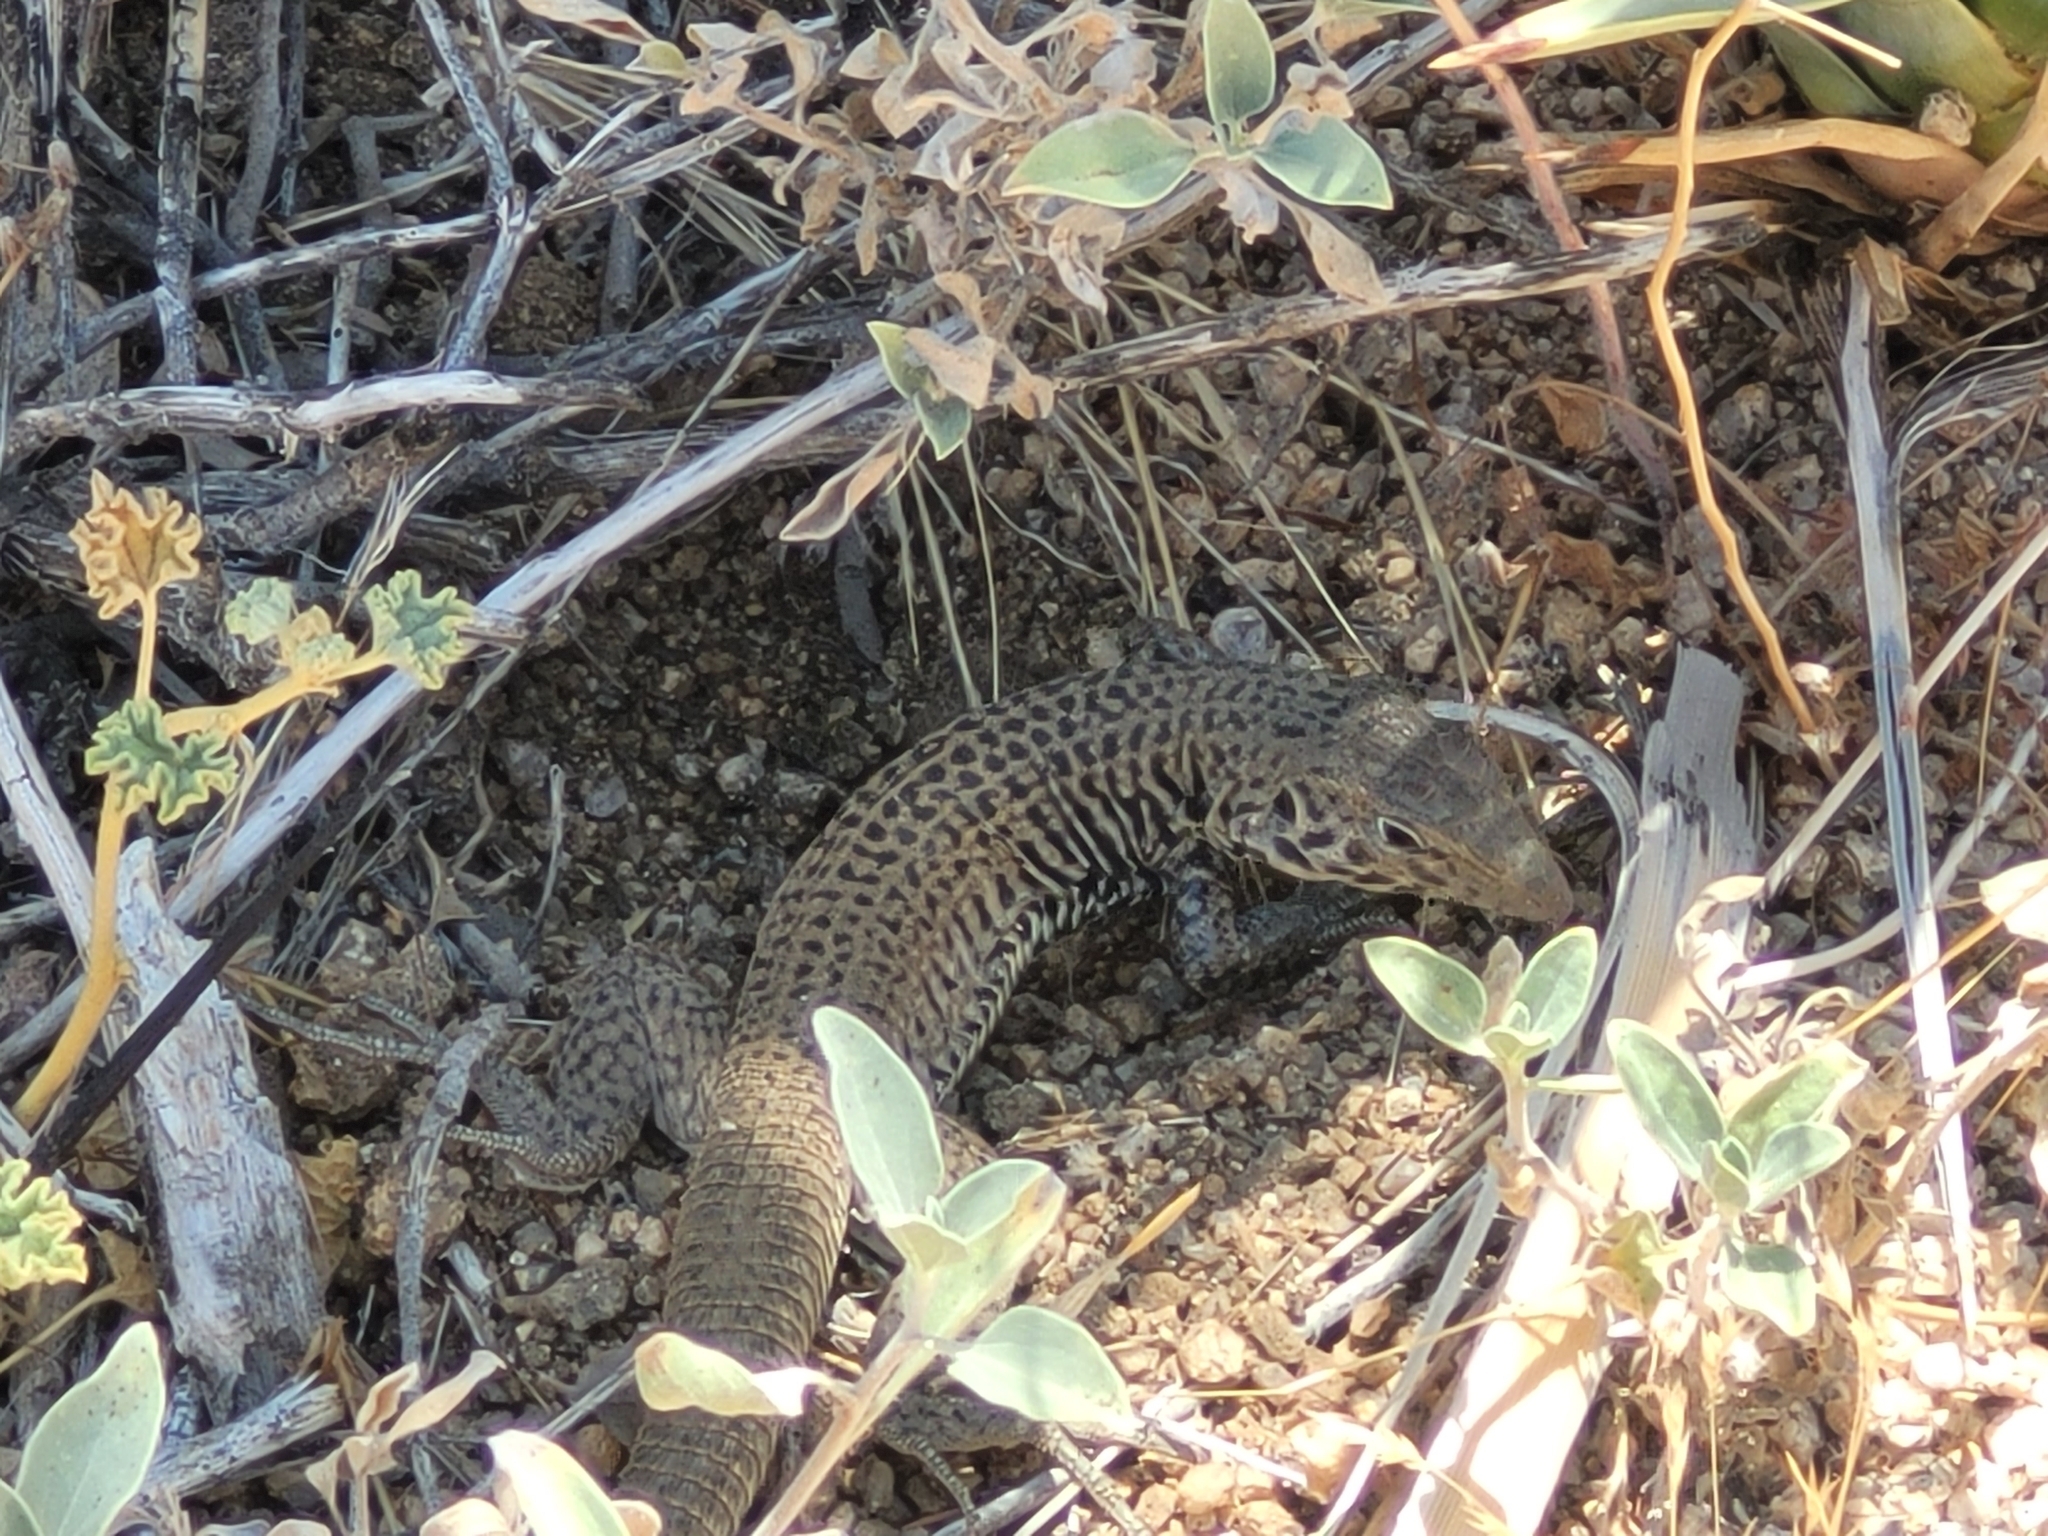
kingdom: Animalia
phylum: Chordata
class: Squamata
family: Teiidae
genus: Aspidoscelis
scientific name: Aspidoscelis tigris
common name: Tiger whiptail
